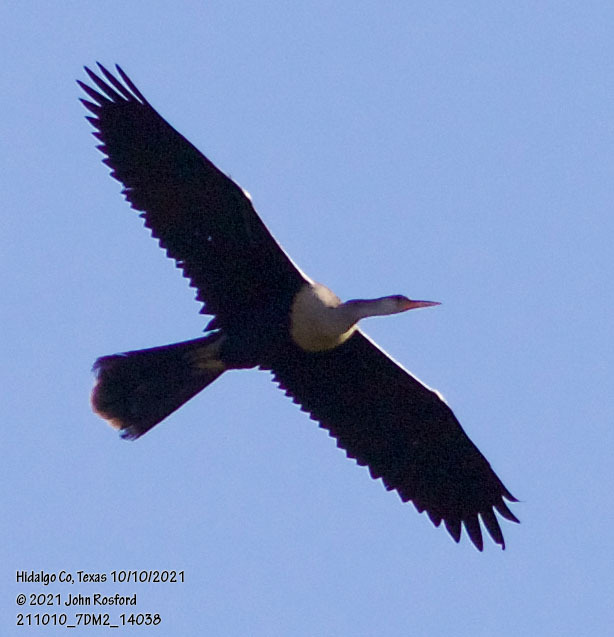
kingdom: Animalia
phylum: Chordata
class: Aves
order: Suliformes
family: Anhingidae
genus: Anhinga
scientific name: Anhinga anhinga
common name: Anhinga
